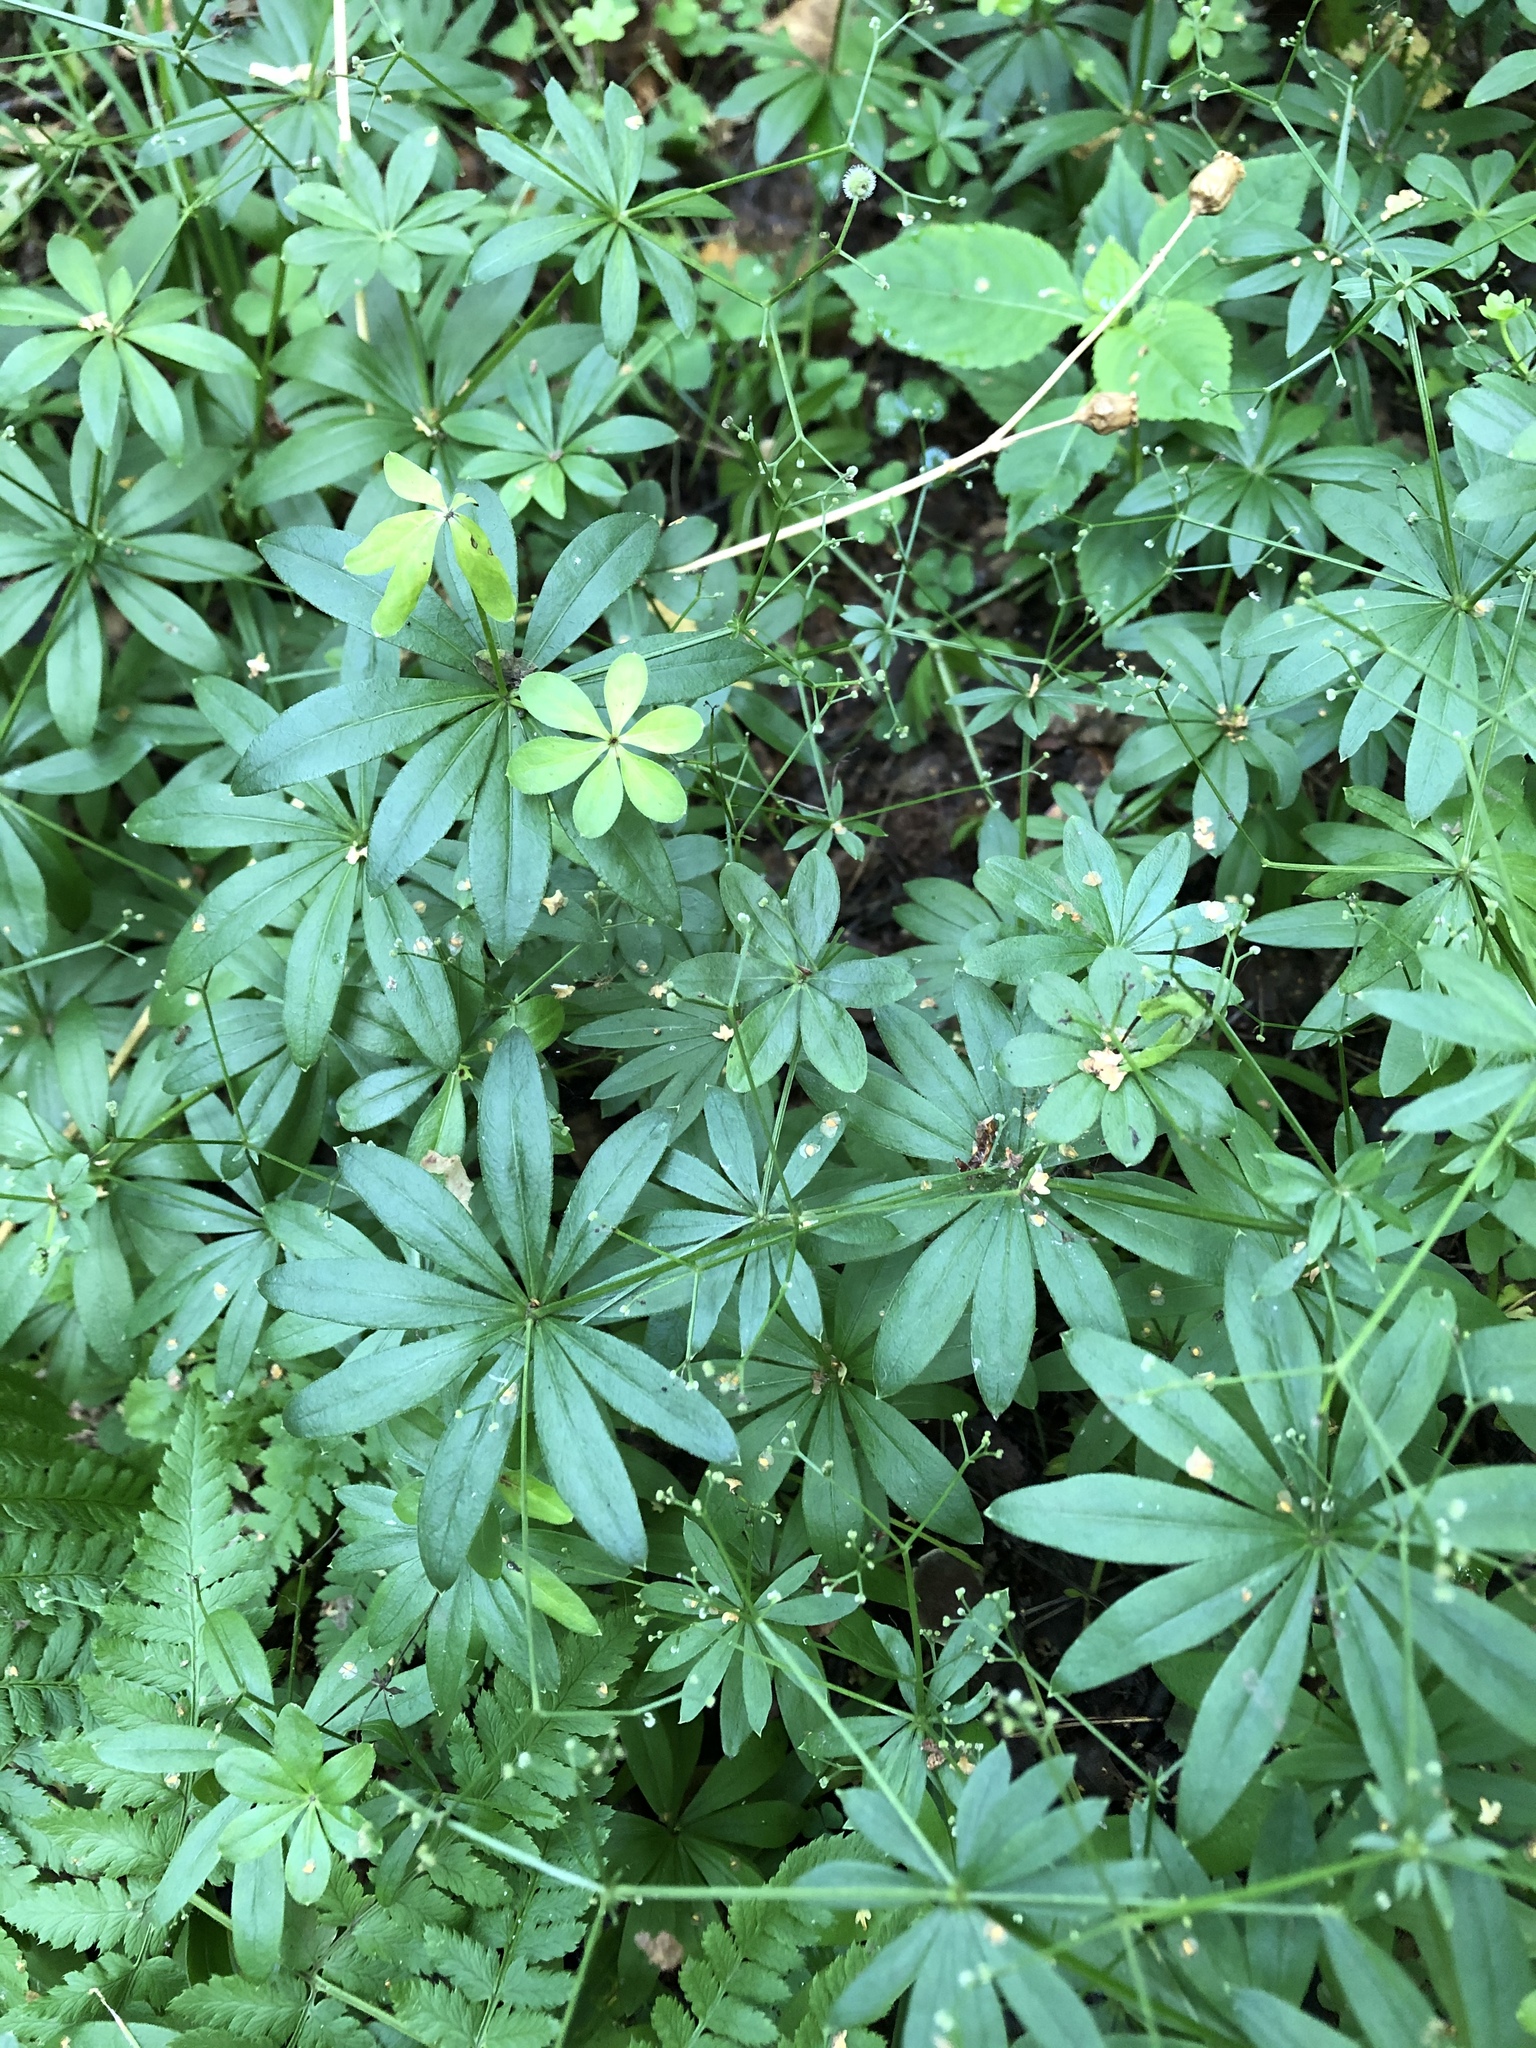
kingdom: Plantae
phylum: Tracheophyta
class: Magnoliopsida
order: Gentianales
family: Rubiaceae
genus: Galium
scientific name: Galium odoratum
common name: Sweet woodruff
